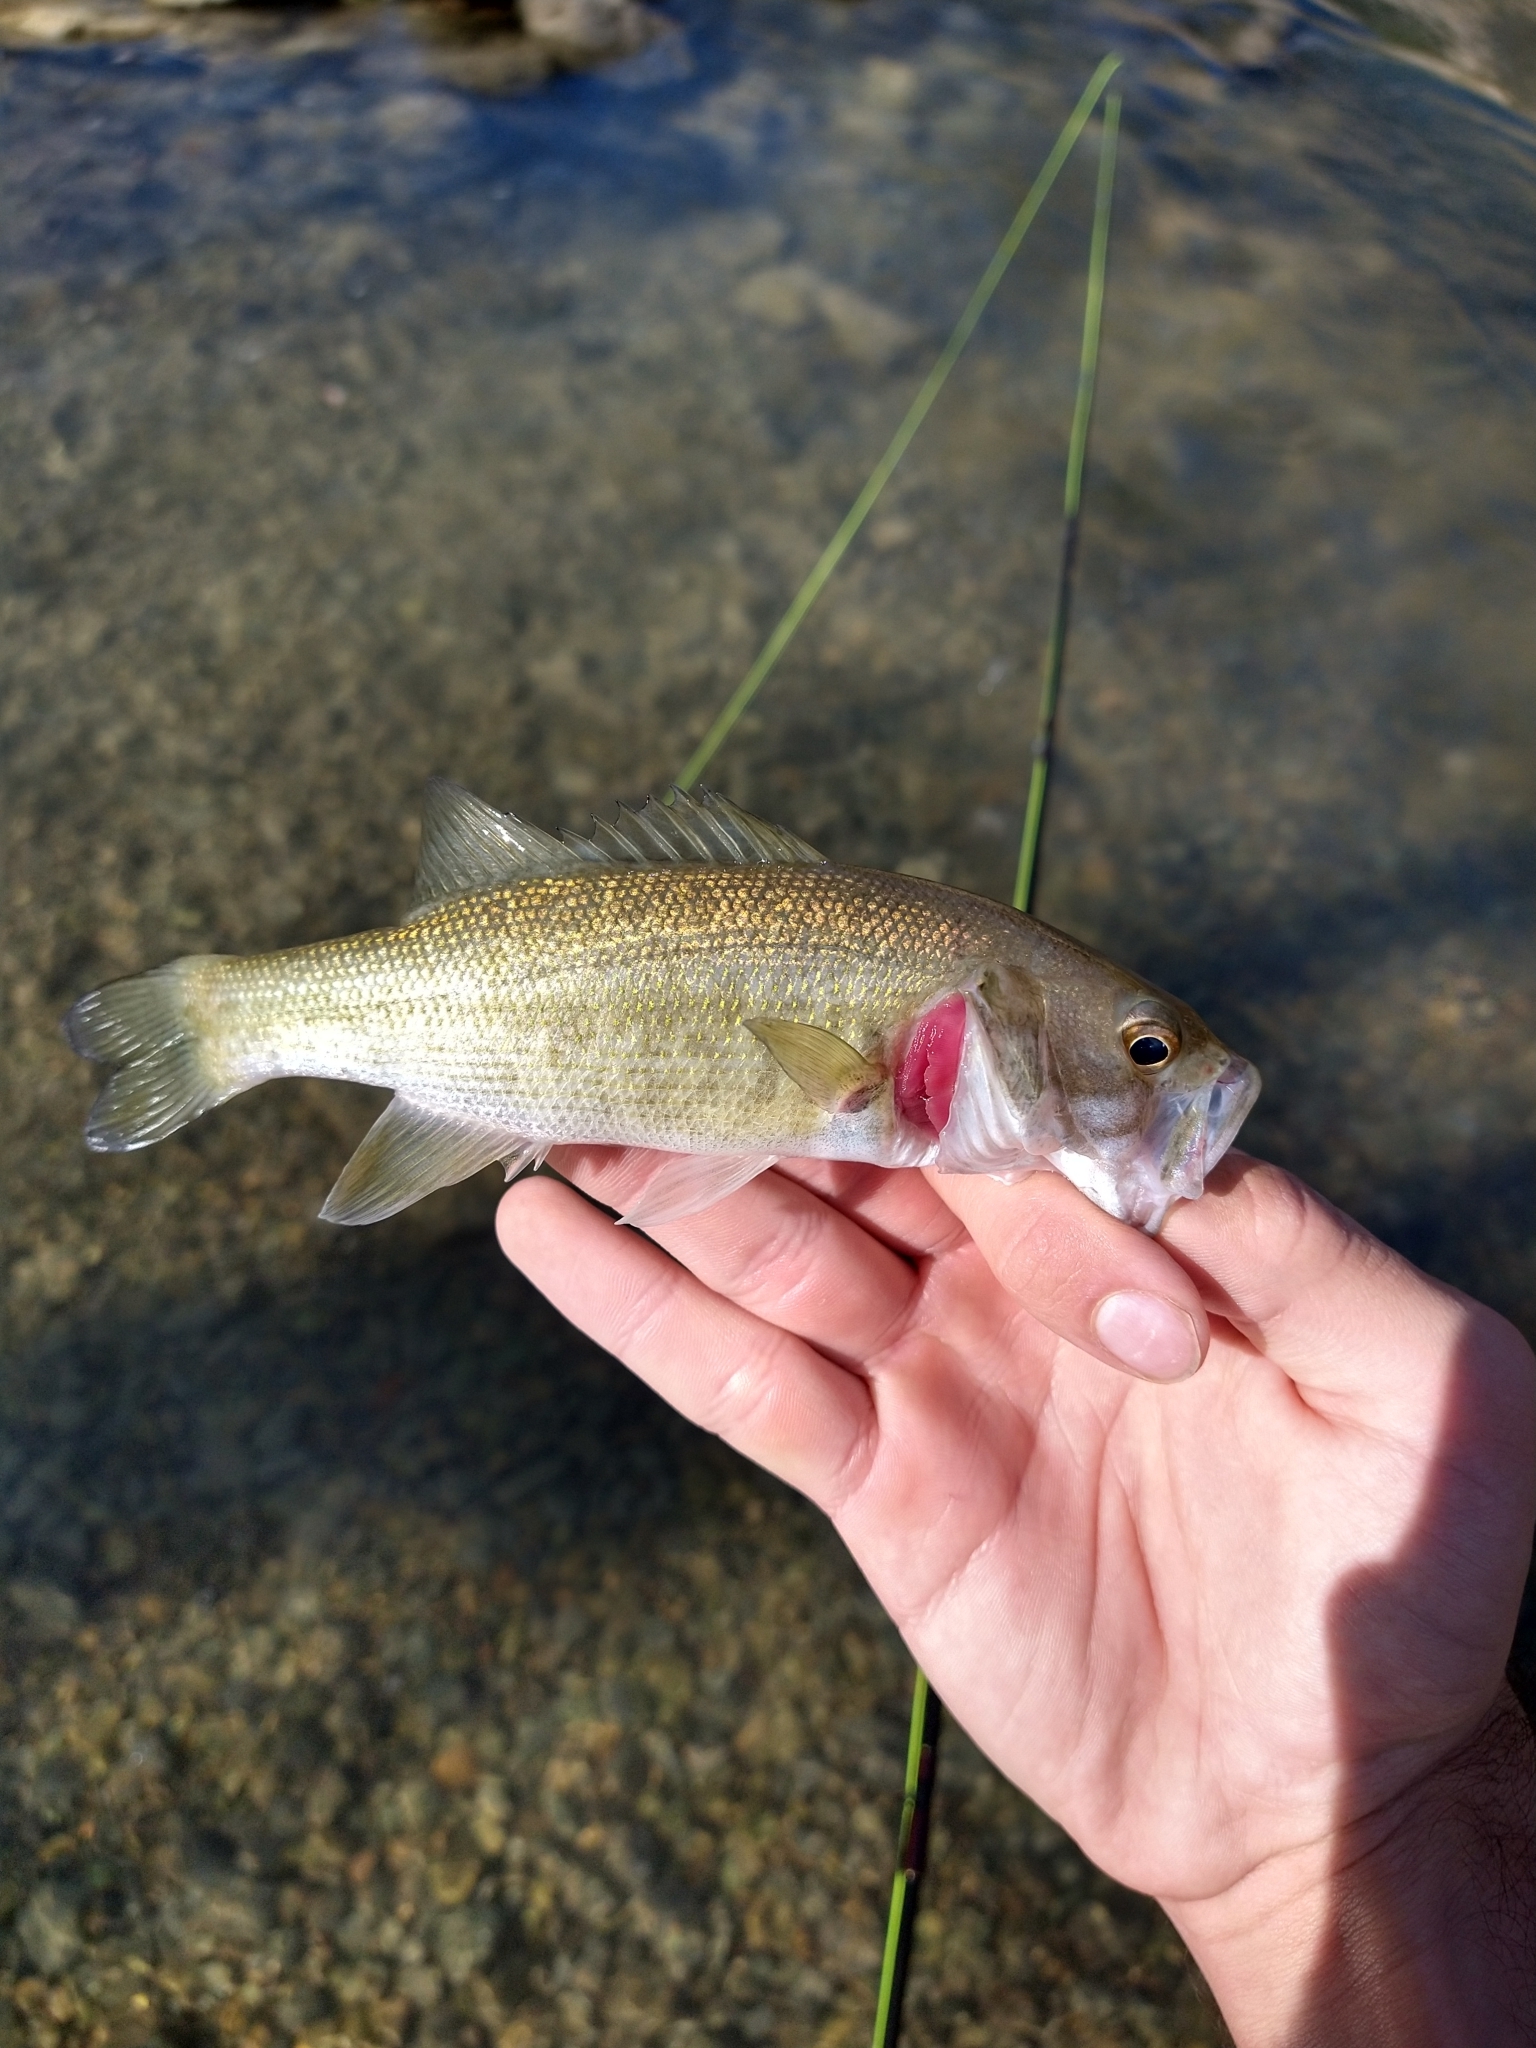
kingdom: Animalia
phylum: Chordata
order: Perciformes
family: Centrarchidae
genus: Micropterus
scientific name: Micropterus treculii
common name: Guadalupe bass
